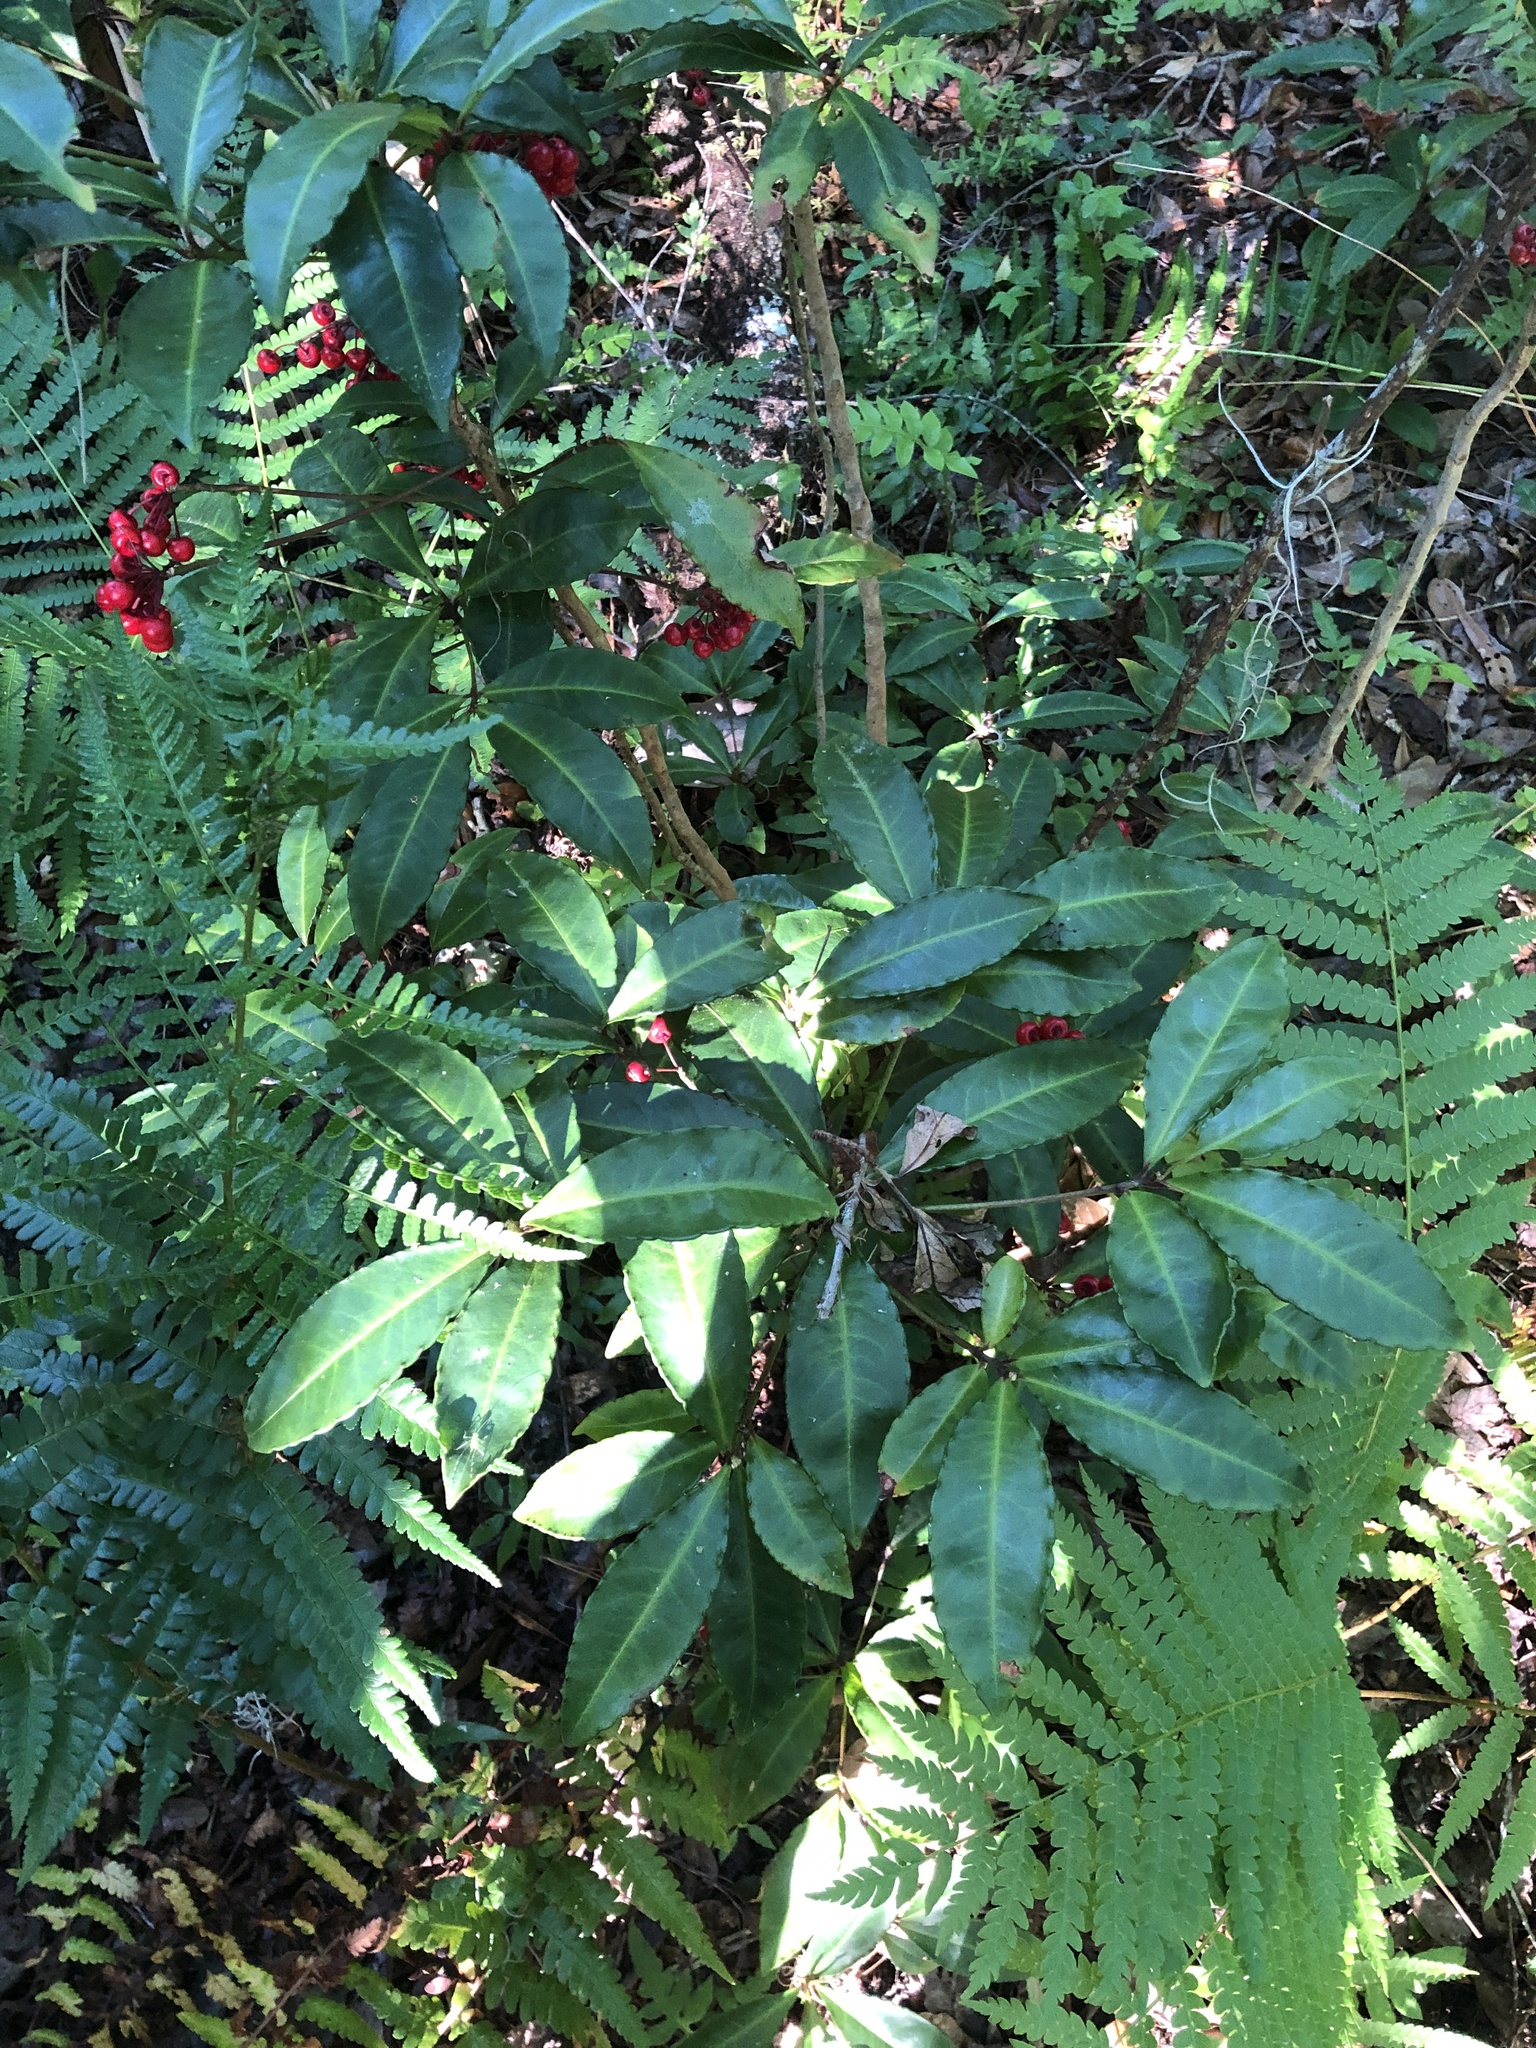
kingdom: Plantae
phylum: Tracheophyta
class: Magnoliopsida
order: Ericales
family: Primulaceae
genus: Ardisia
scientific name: Ardisia crenata
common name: Hen's eyes
